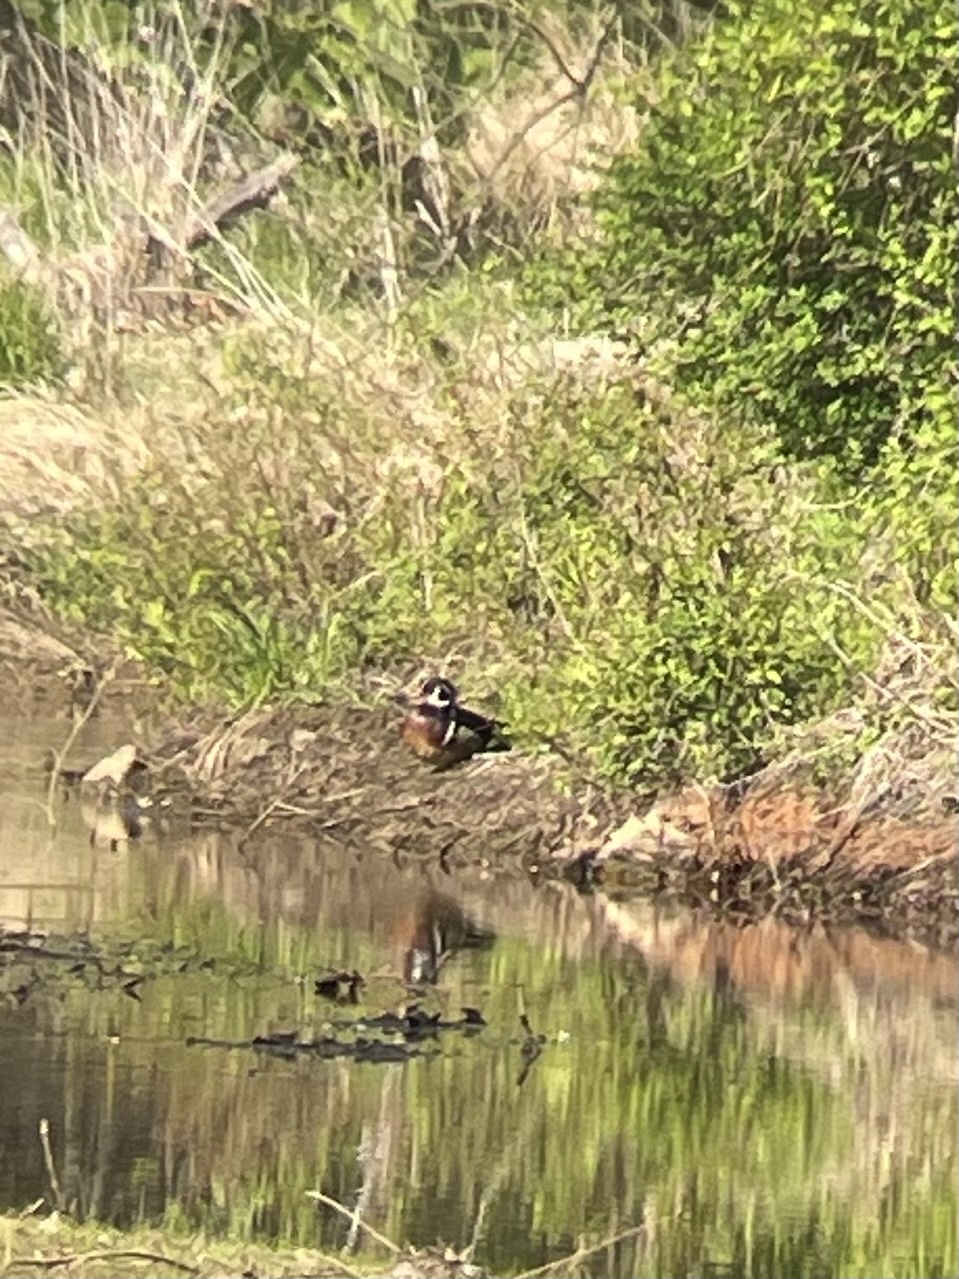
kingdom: Animalia
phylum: Chordata
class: Aves
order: Anseriformes
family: Anatidae
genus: Aix
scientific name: Aix sponsa
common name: Wood duck
